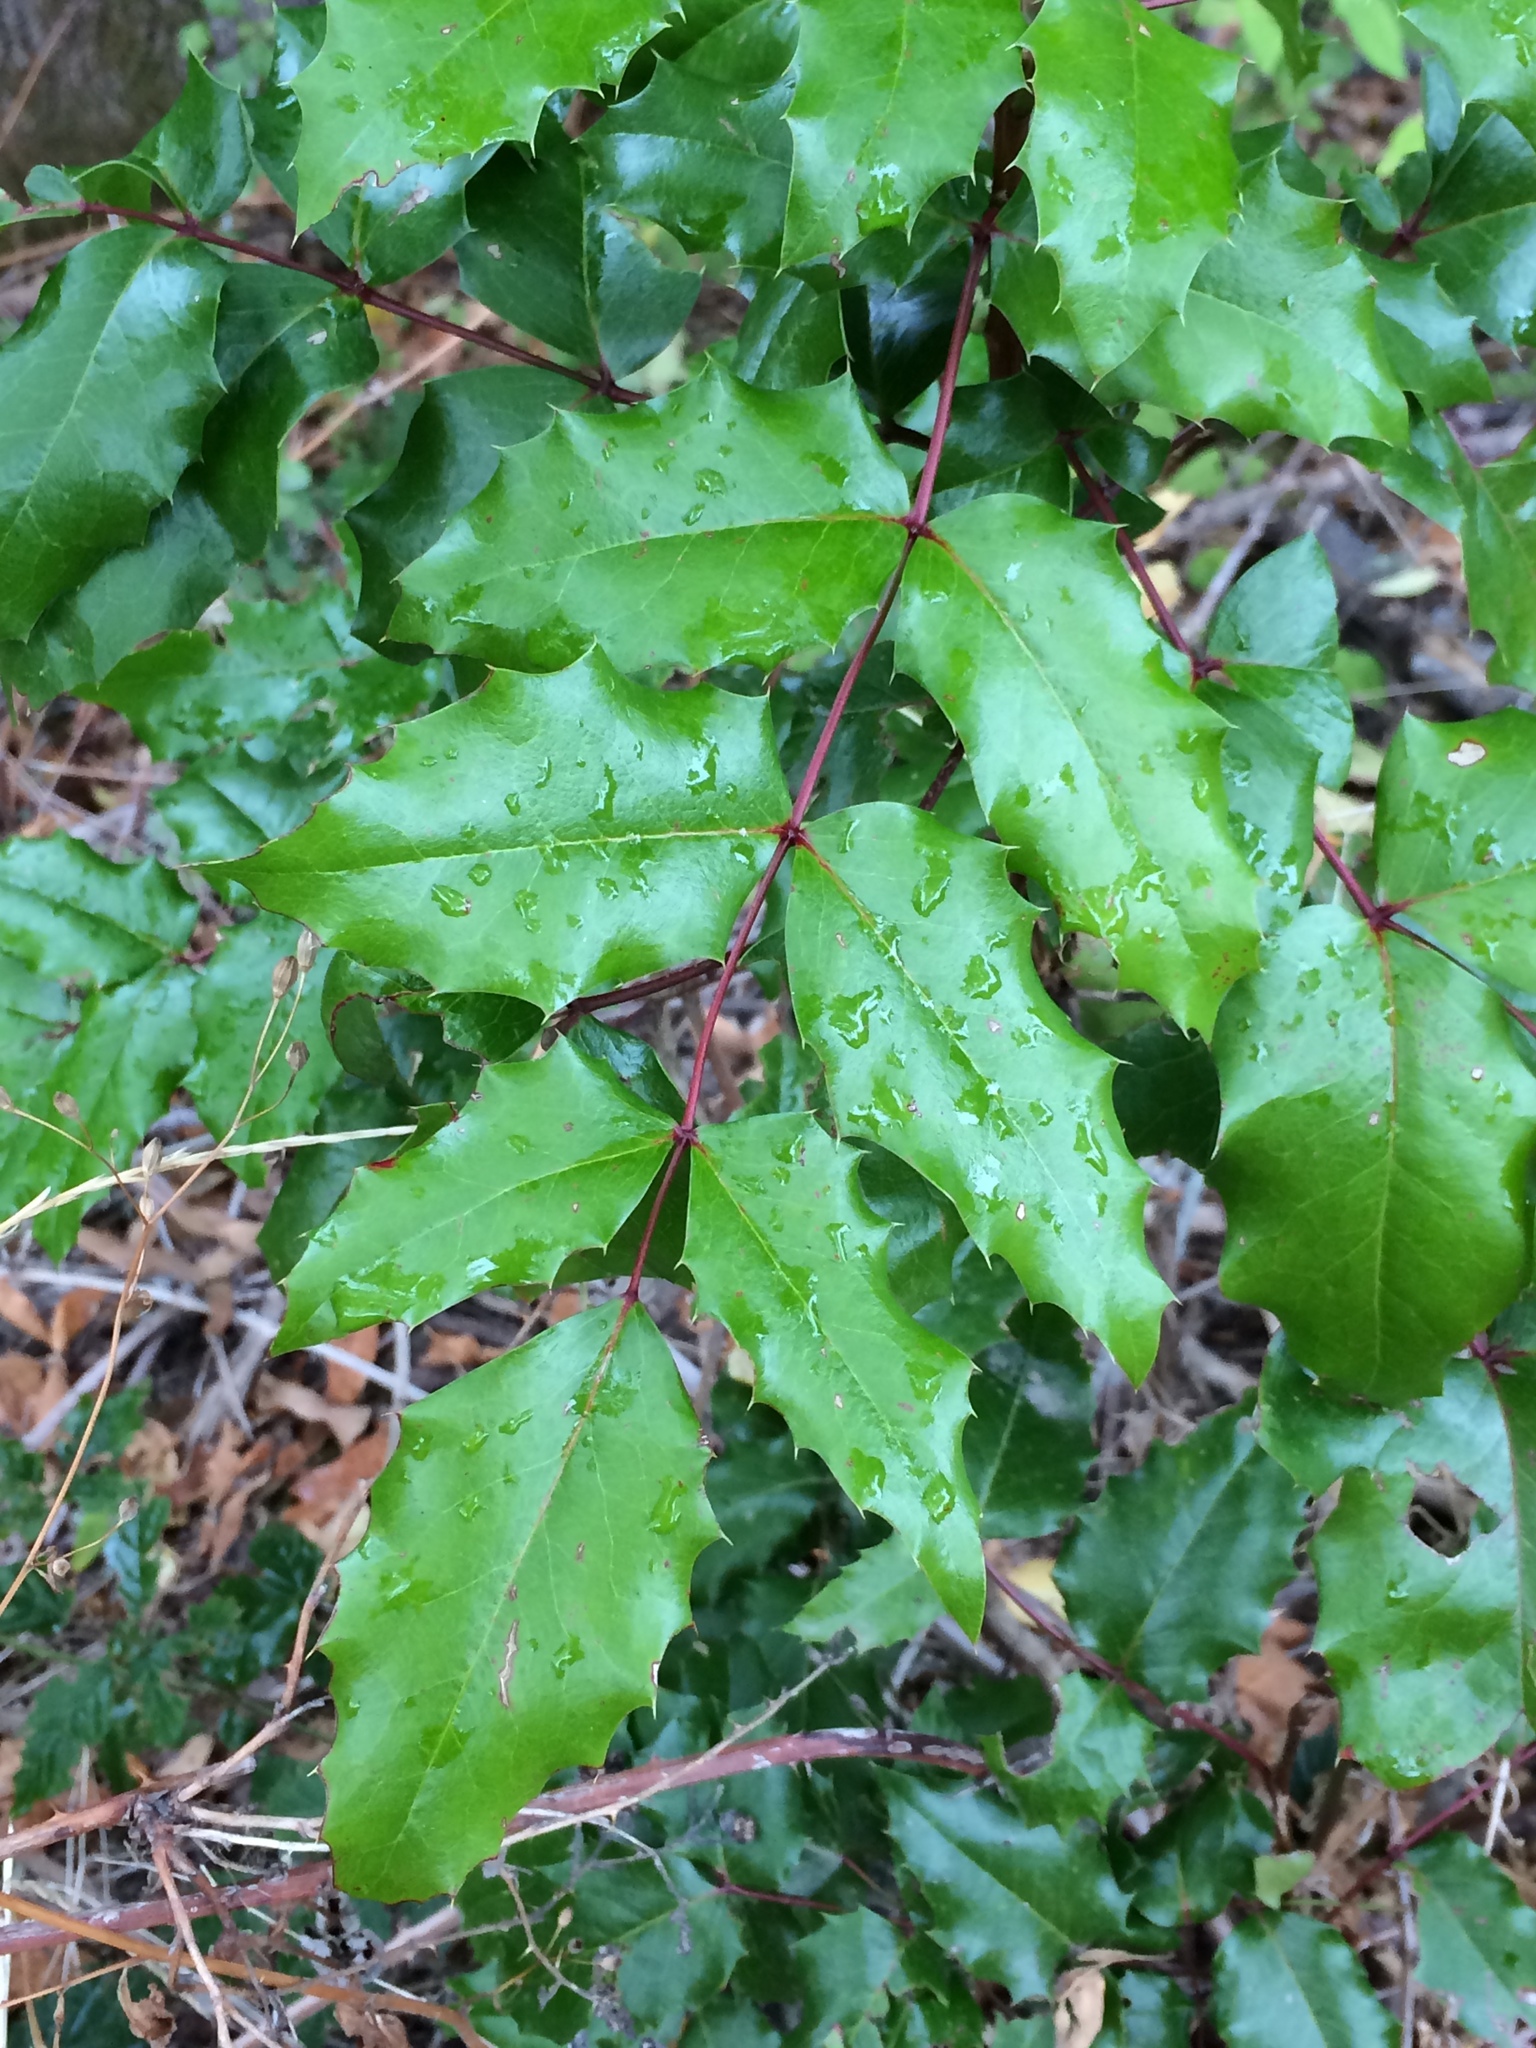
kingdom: Plantae
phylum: Tracheophyta
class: Magnoliopsida
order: Ranunculales
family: Berberidaceae
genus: Mahonia
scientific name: Mahonia aquifolium
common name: Oregon-grape
